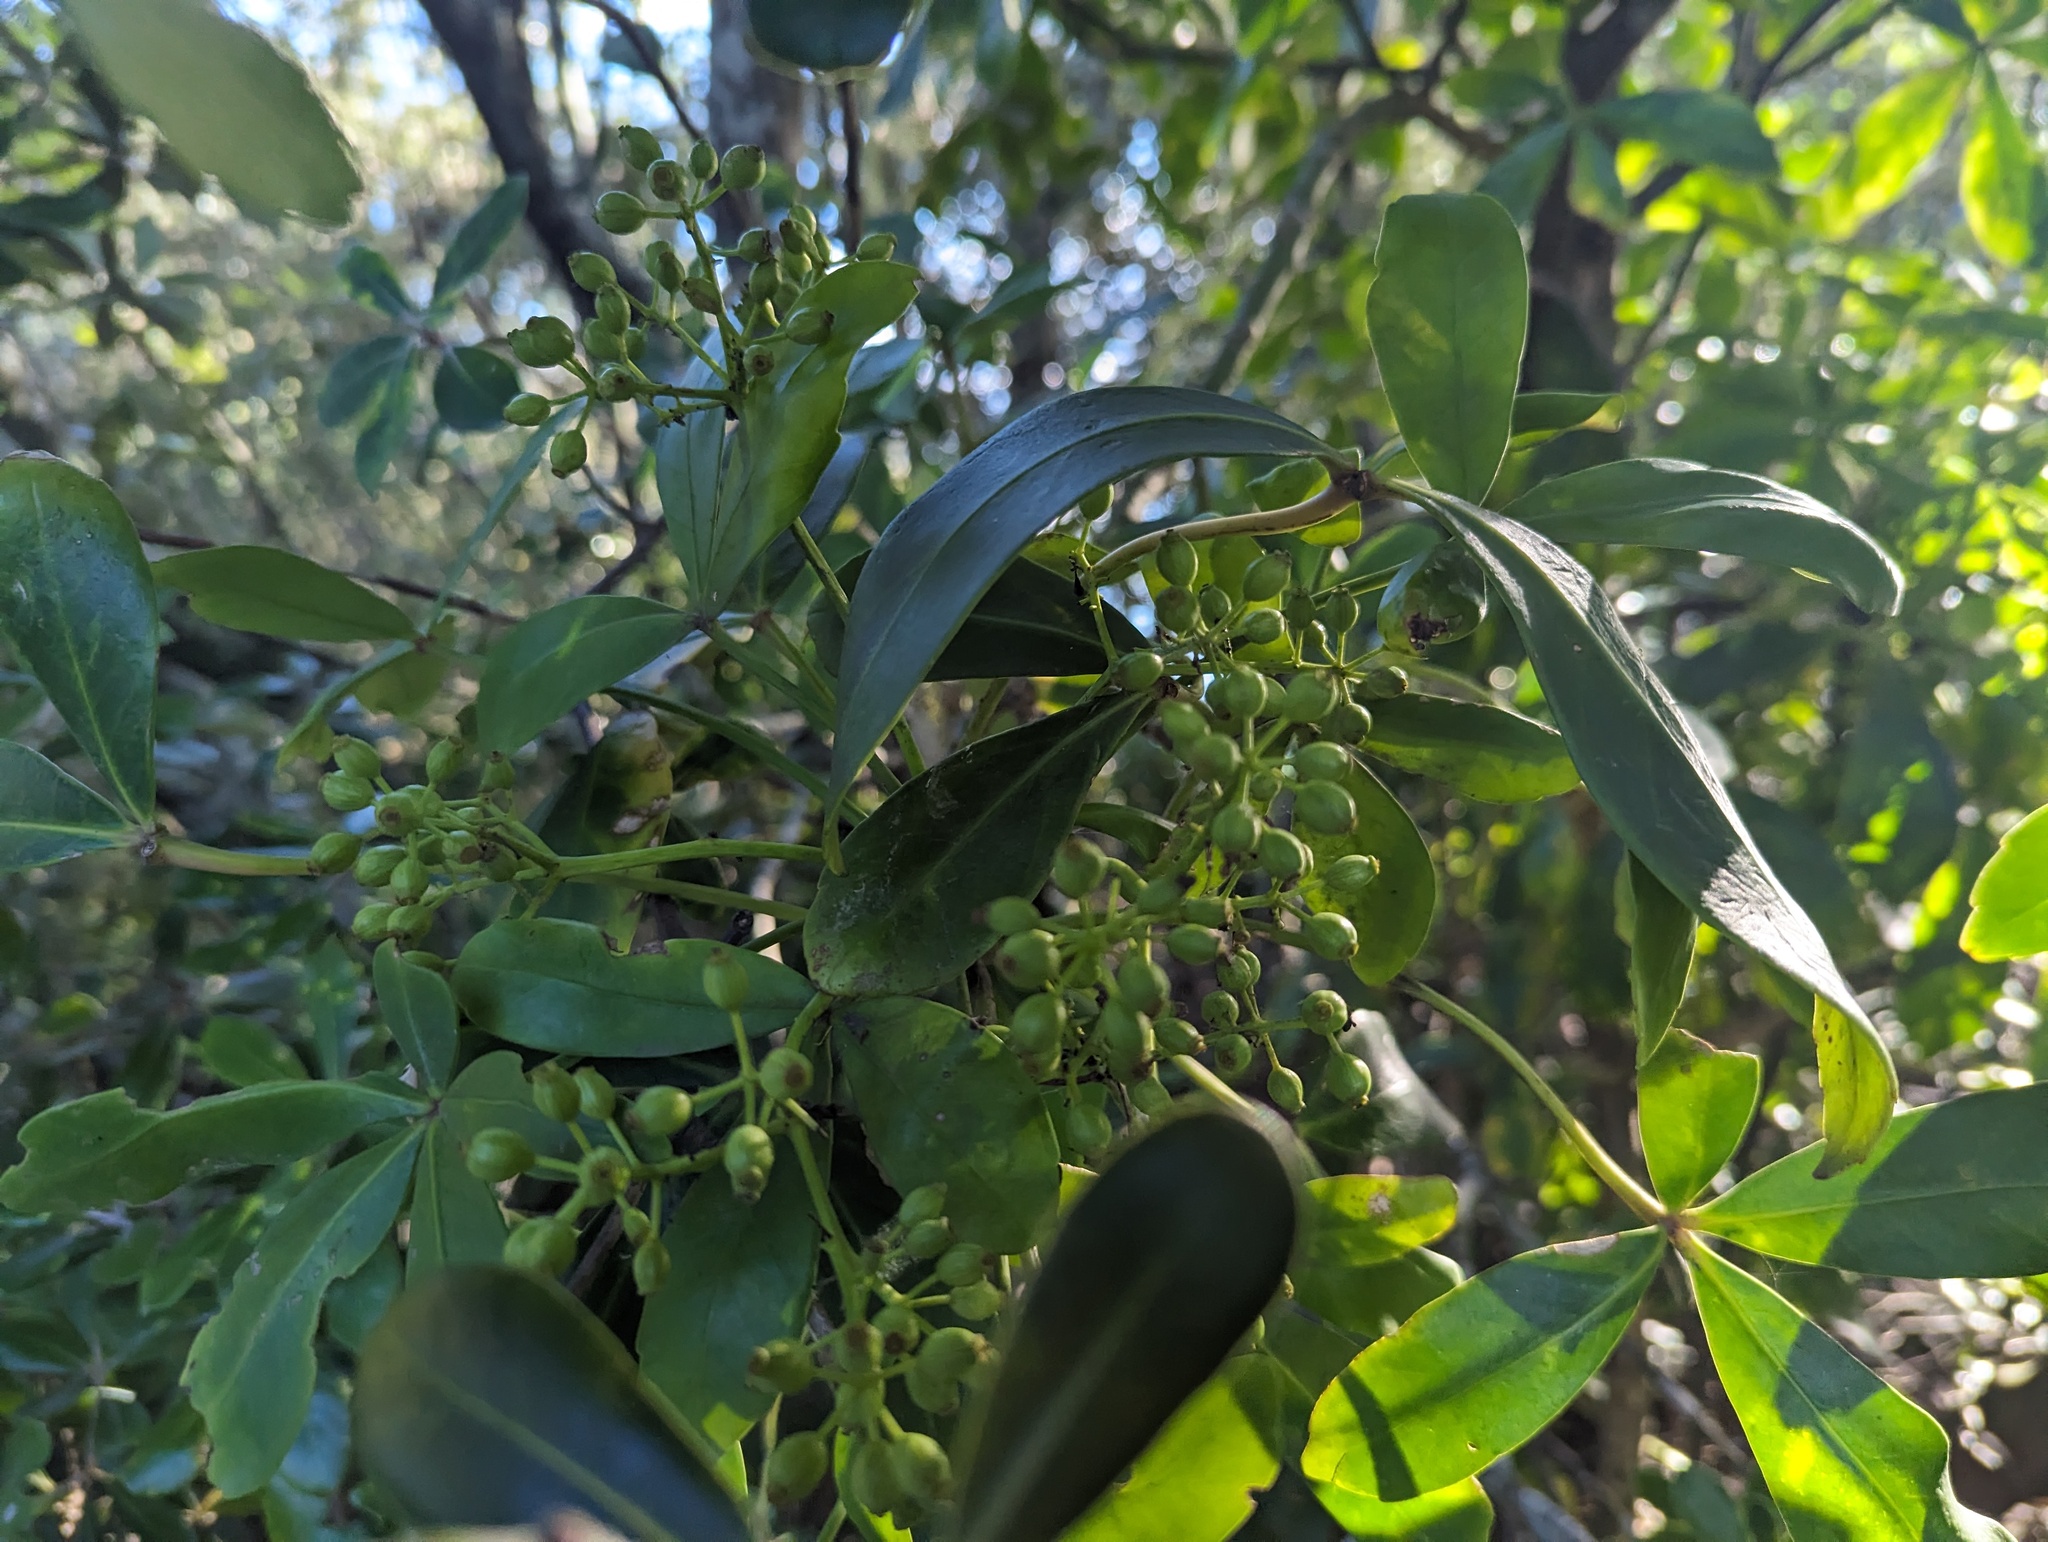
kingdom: Plantae
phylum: Tracheophyta
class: Magnoliopsida
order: Apiales
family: Araliaceae
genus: Pseudopanax
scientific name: Pseudopanax lessonii
